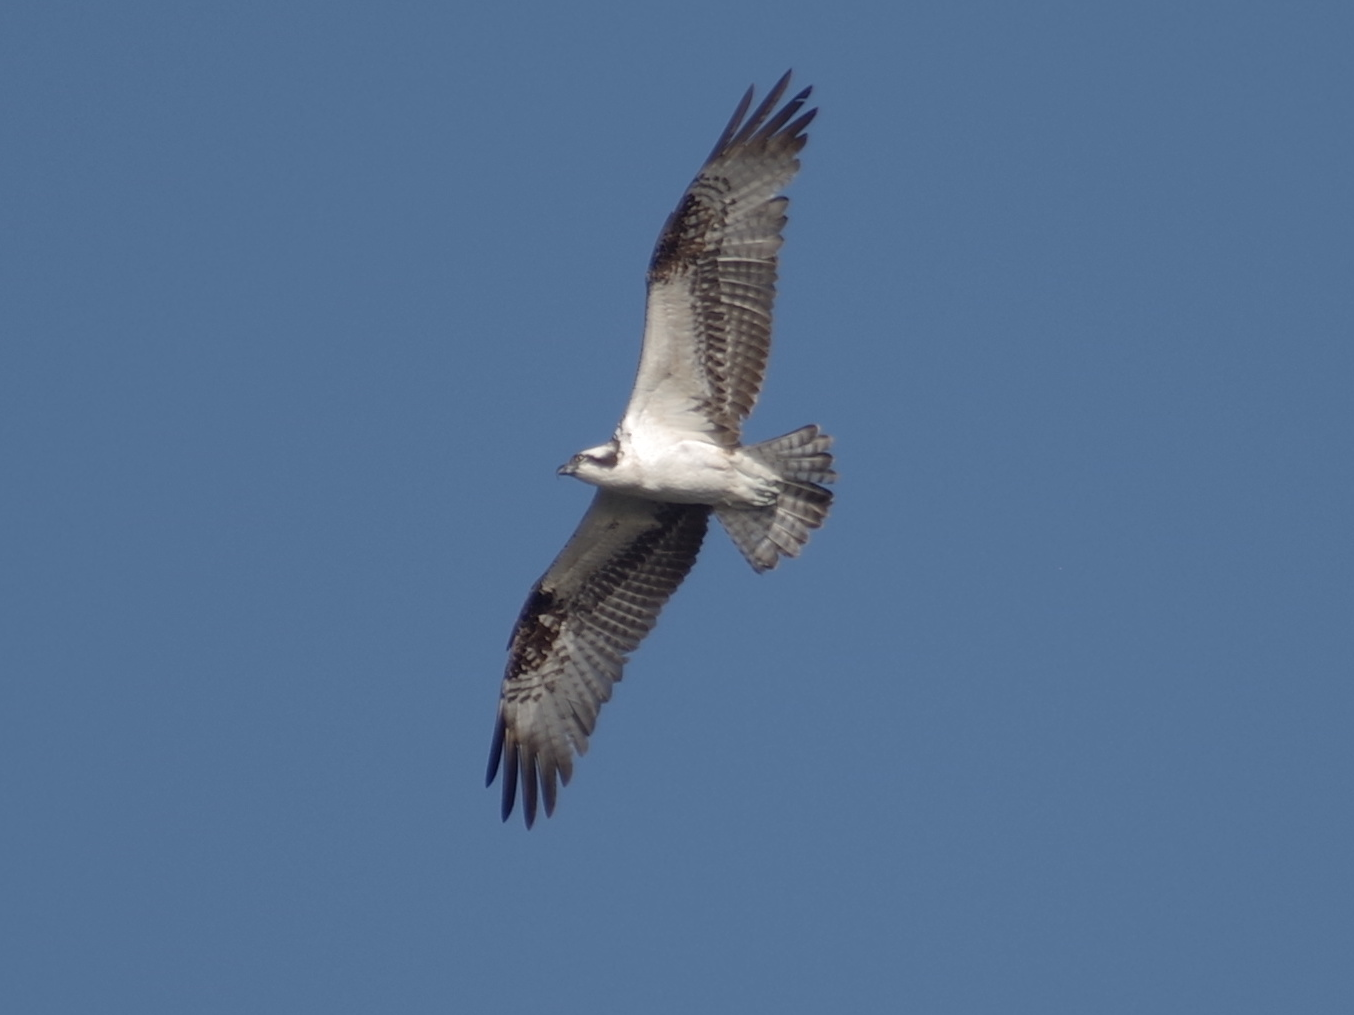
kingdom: Animalia
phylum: Chordata
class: Aves
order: Accipitriformes
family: Pandionidae
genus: Pandion
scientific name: Pandion haliaetus
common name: Osprey
